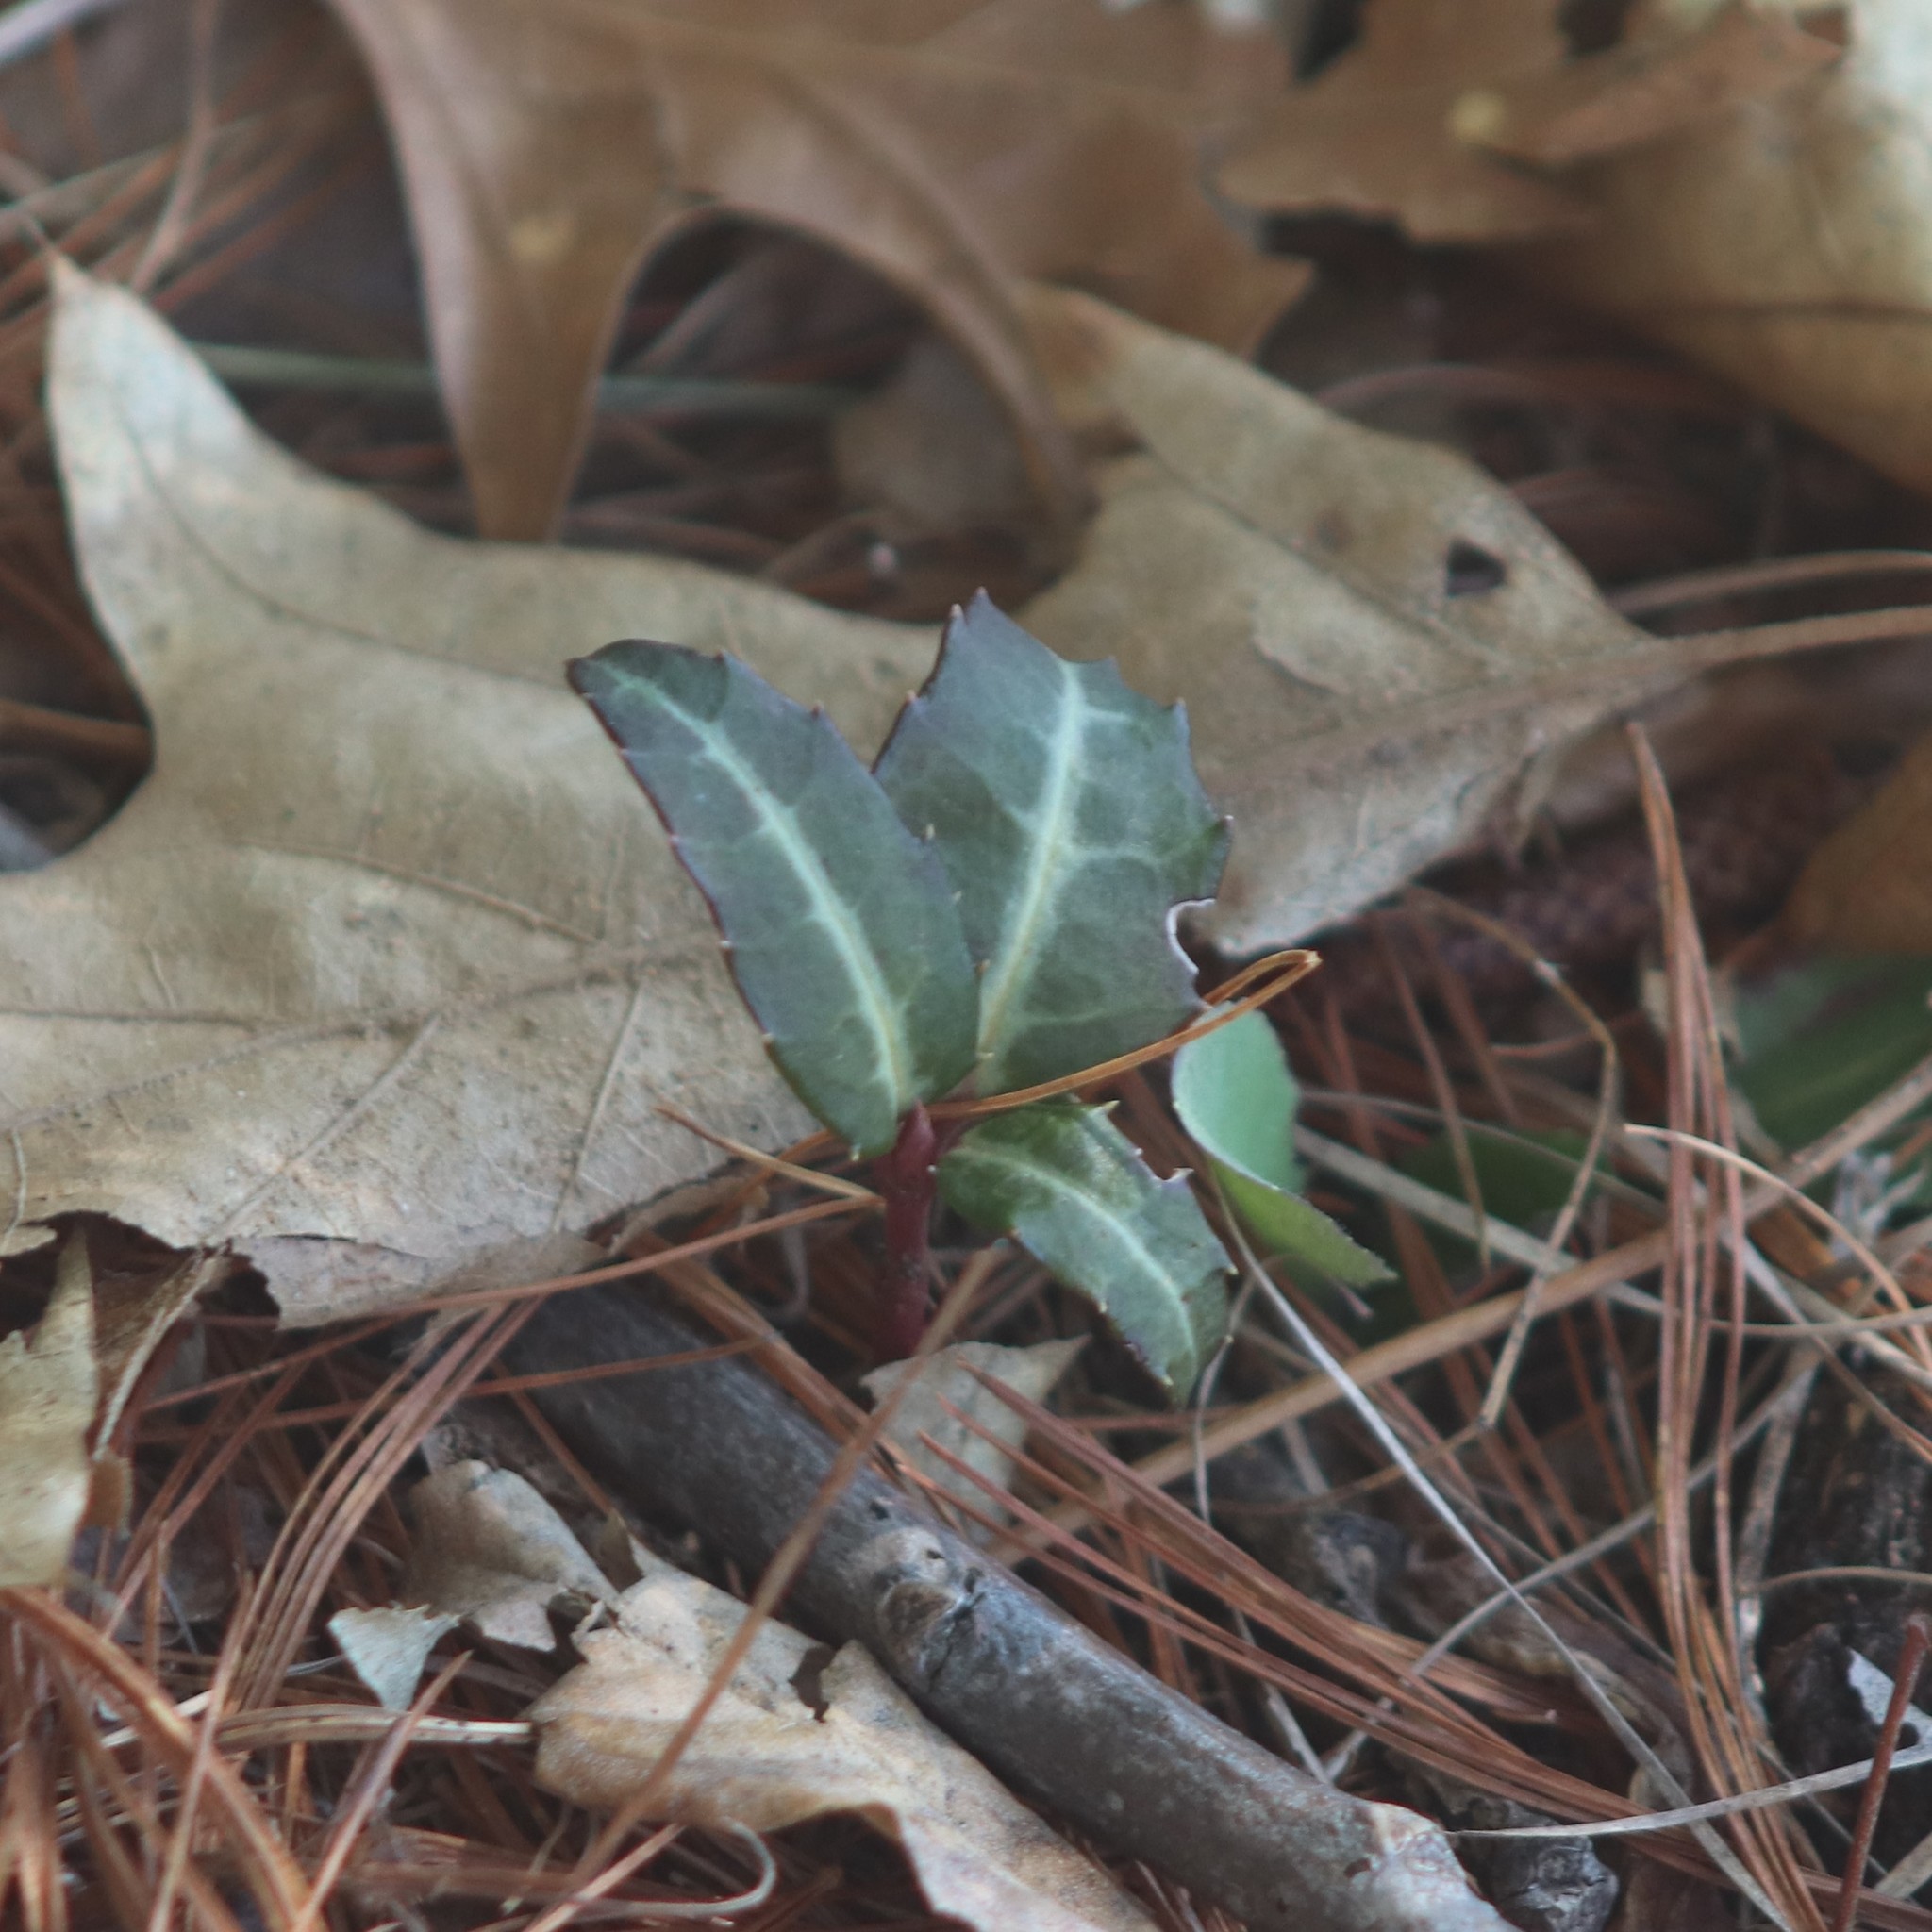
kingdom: Plantae
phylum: Tracheophyta
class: Magnoliopsida
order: Ericales
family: Ericaceae
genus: Chimaphila
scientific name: Chimaphila maculata
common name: Spotted pipsissewa
